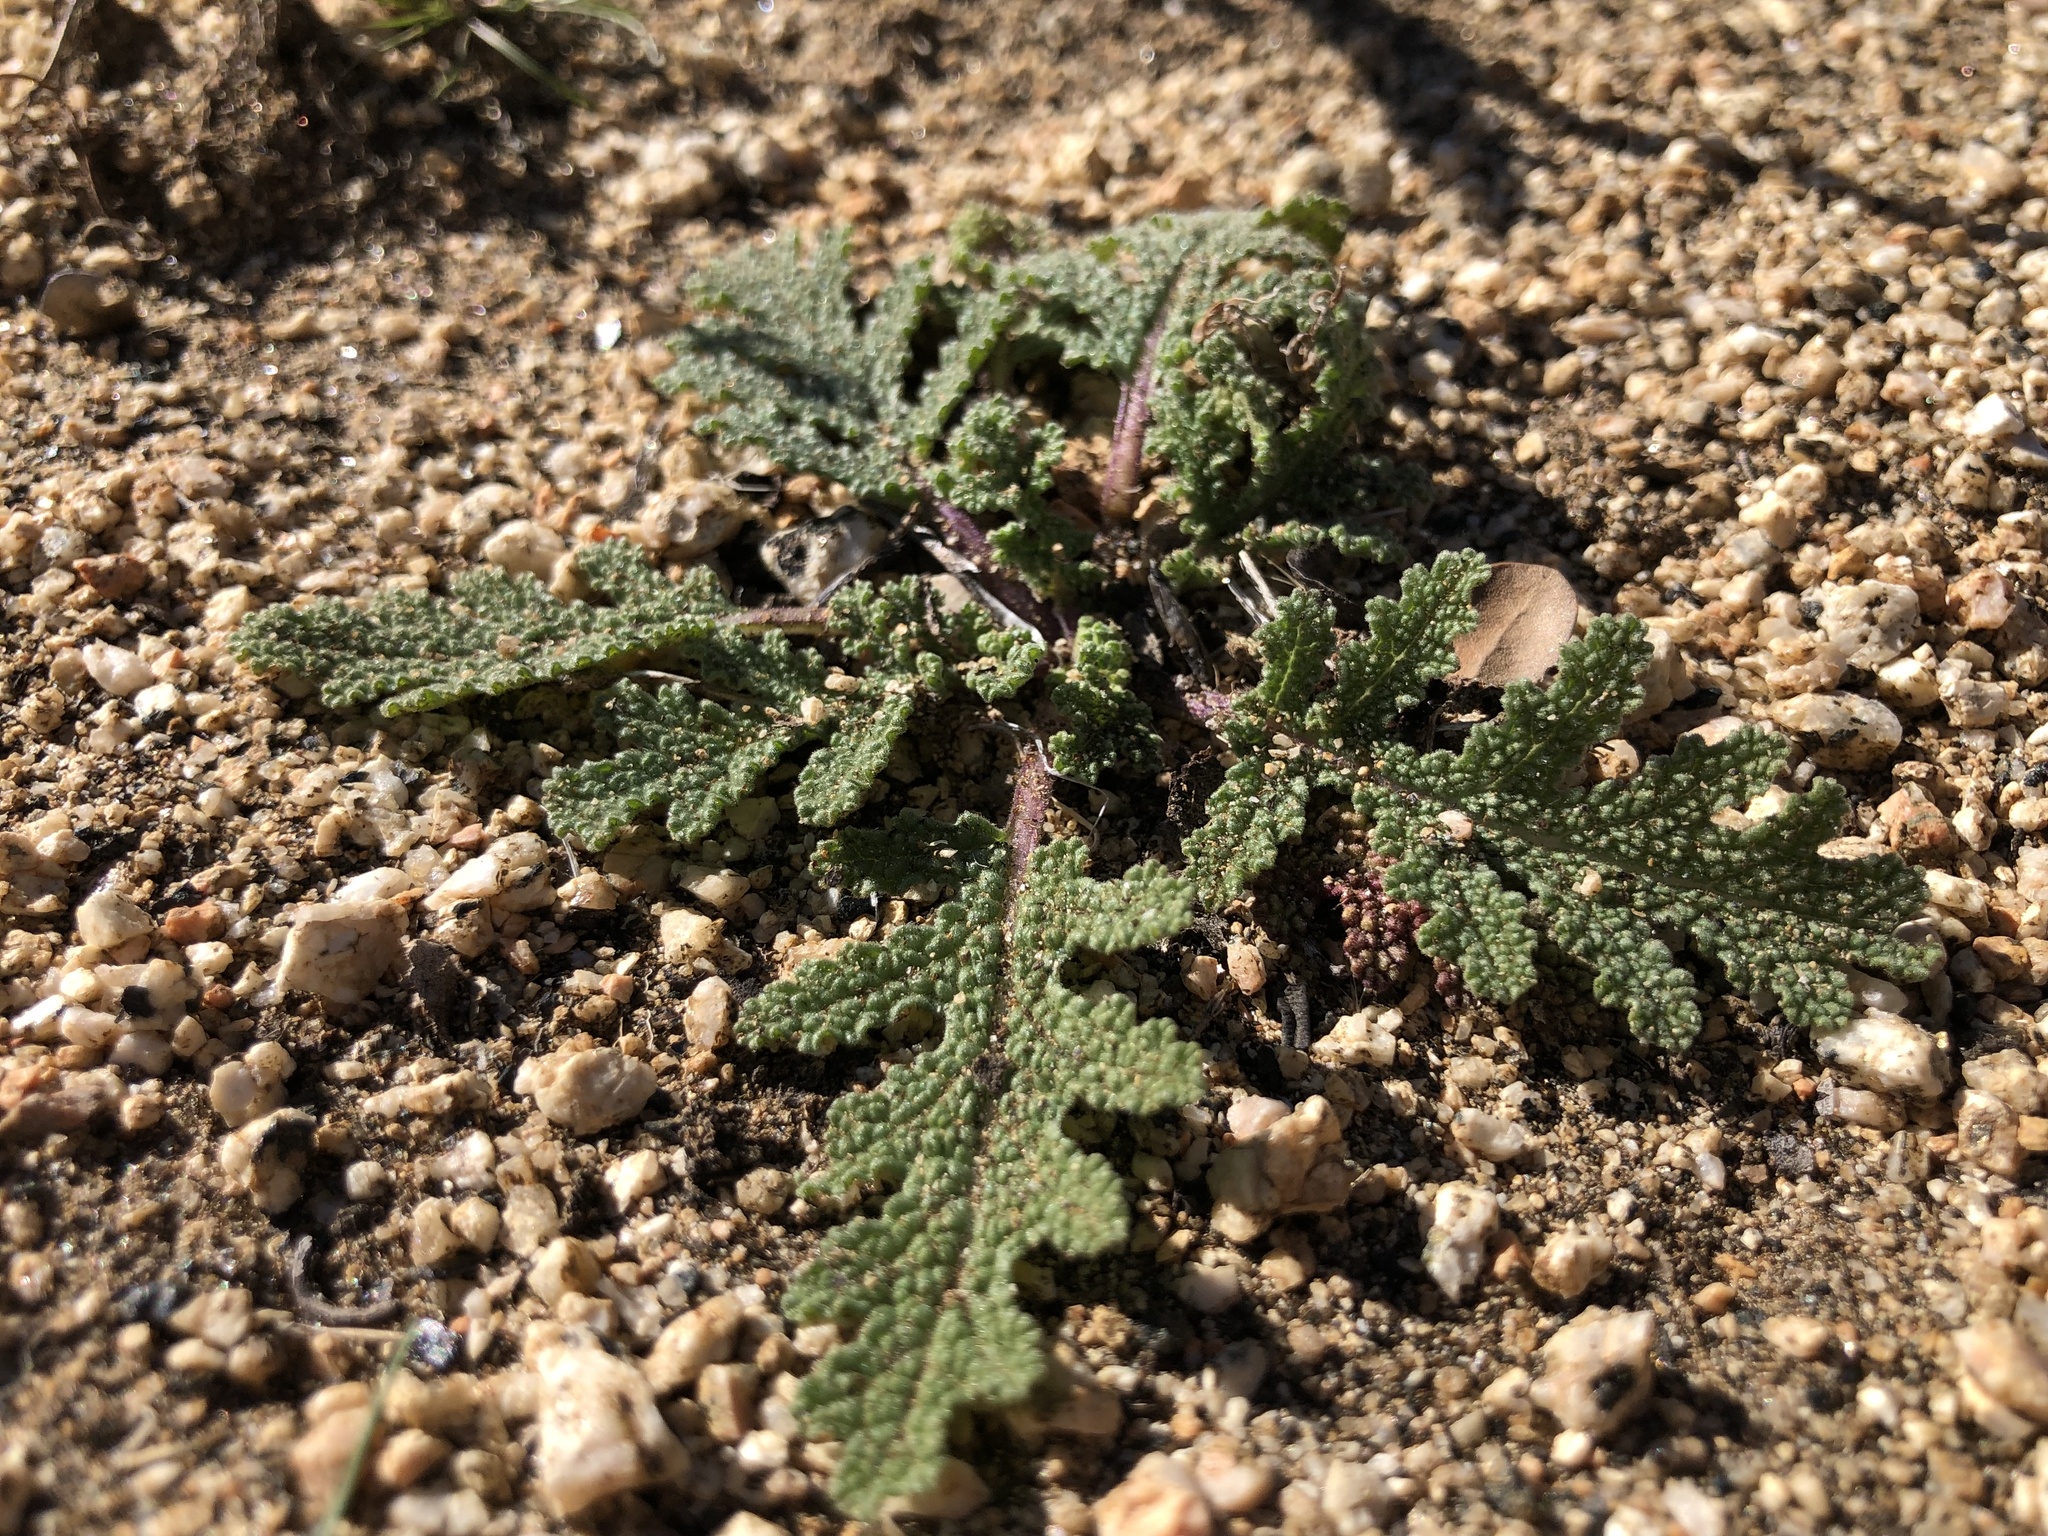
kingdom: Plantae
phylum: Tracheophyta
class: Magnoliopsida
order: Lamiales
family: Lamiaceae
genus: Salvia
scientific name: Salvia columbariae
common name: Chia
